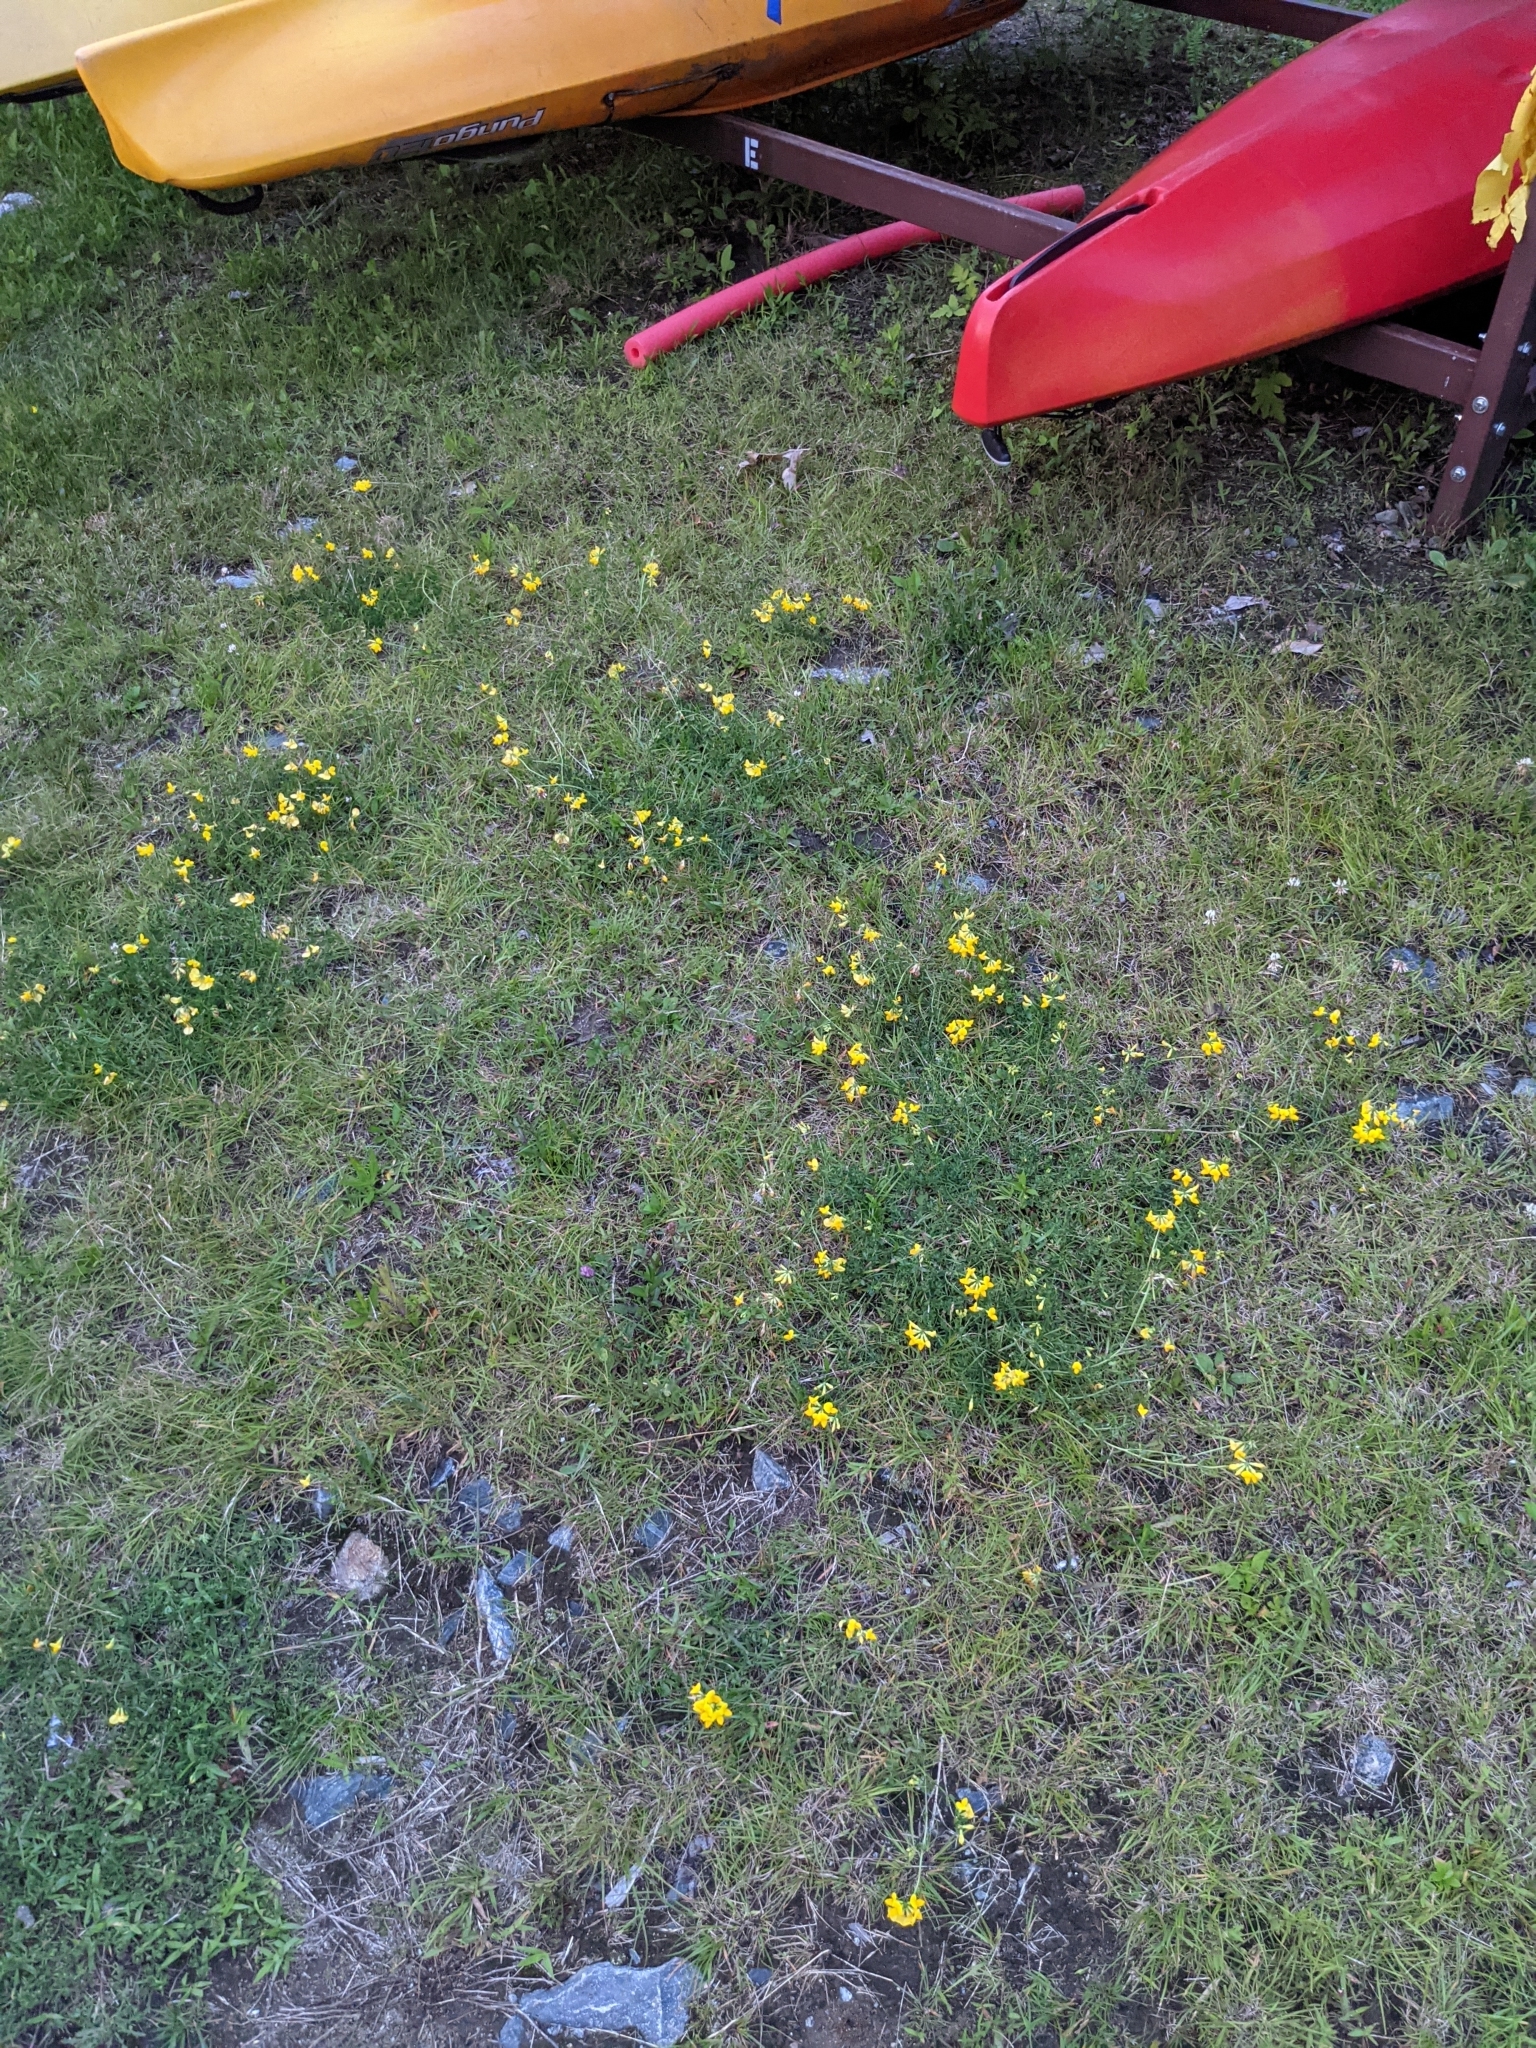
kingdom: Plantae
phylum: Tracheophyta
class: Magnoliopsida
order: Fabales
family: Fabaceae
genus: Lotus
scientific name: Lotus corniculatus
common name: Common bird's-foot-trefoil
